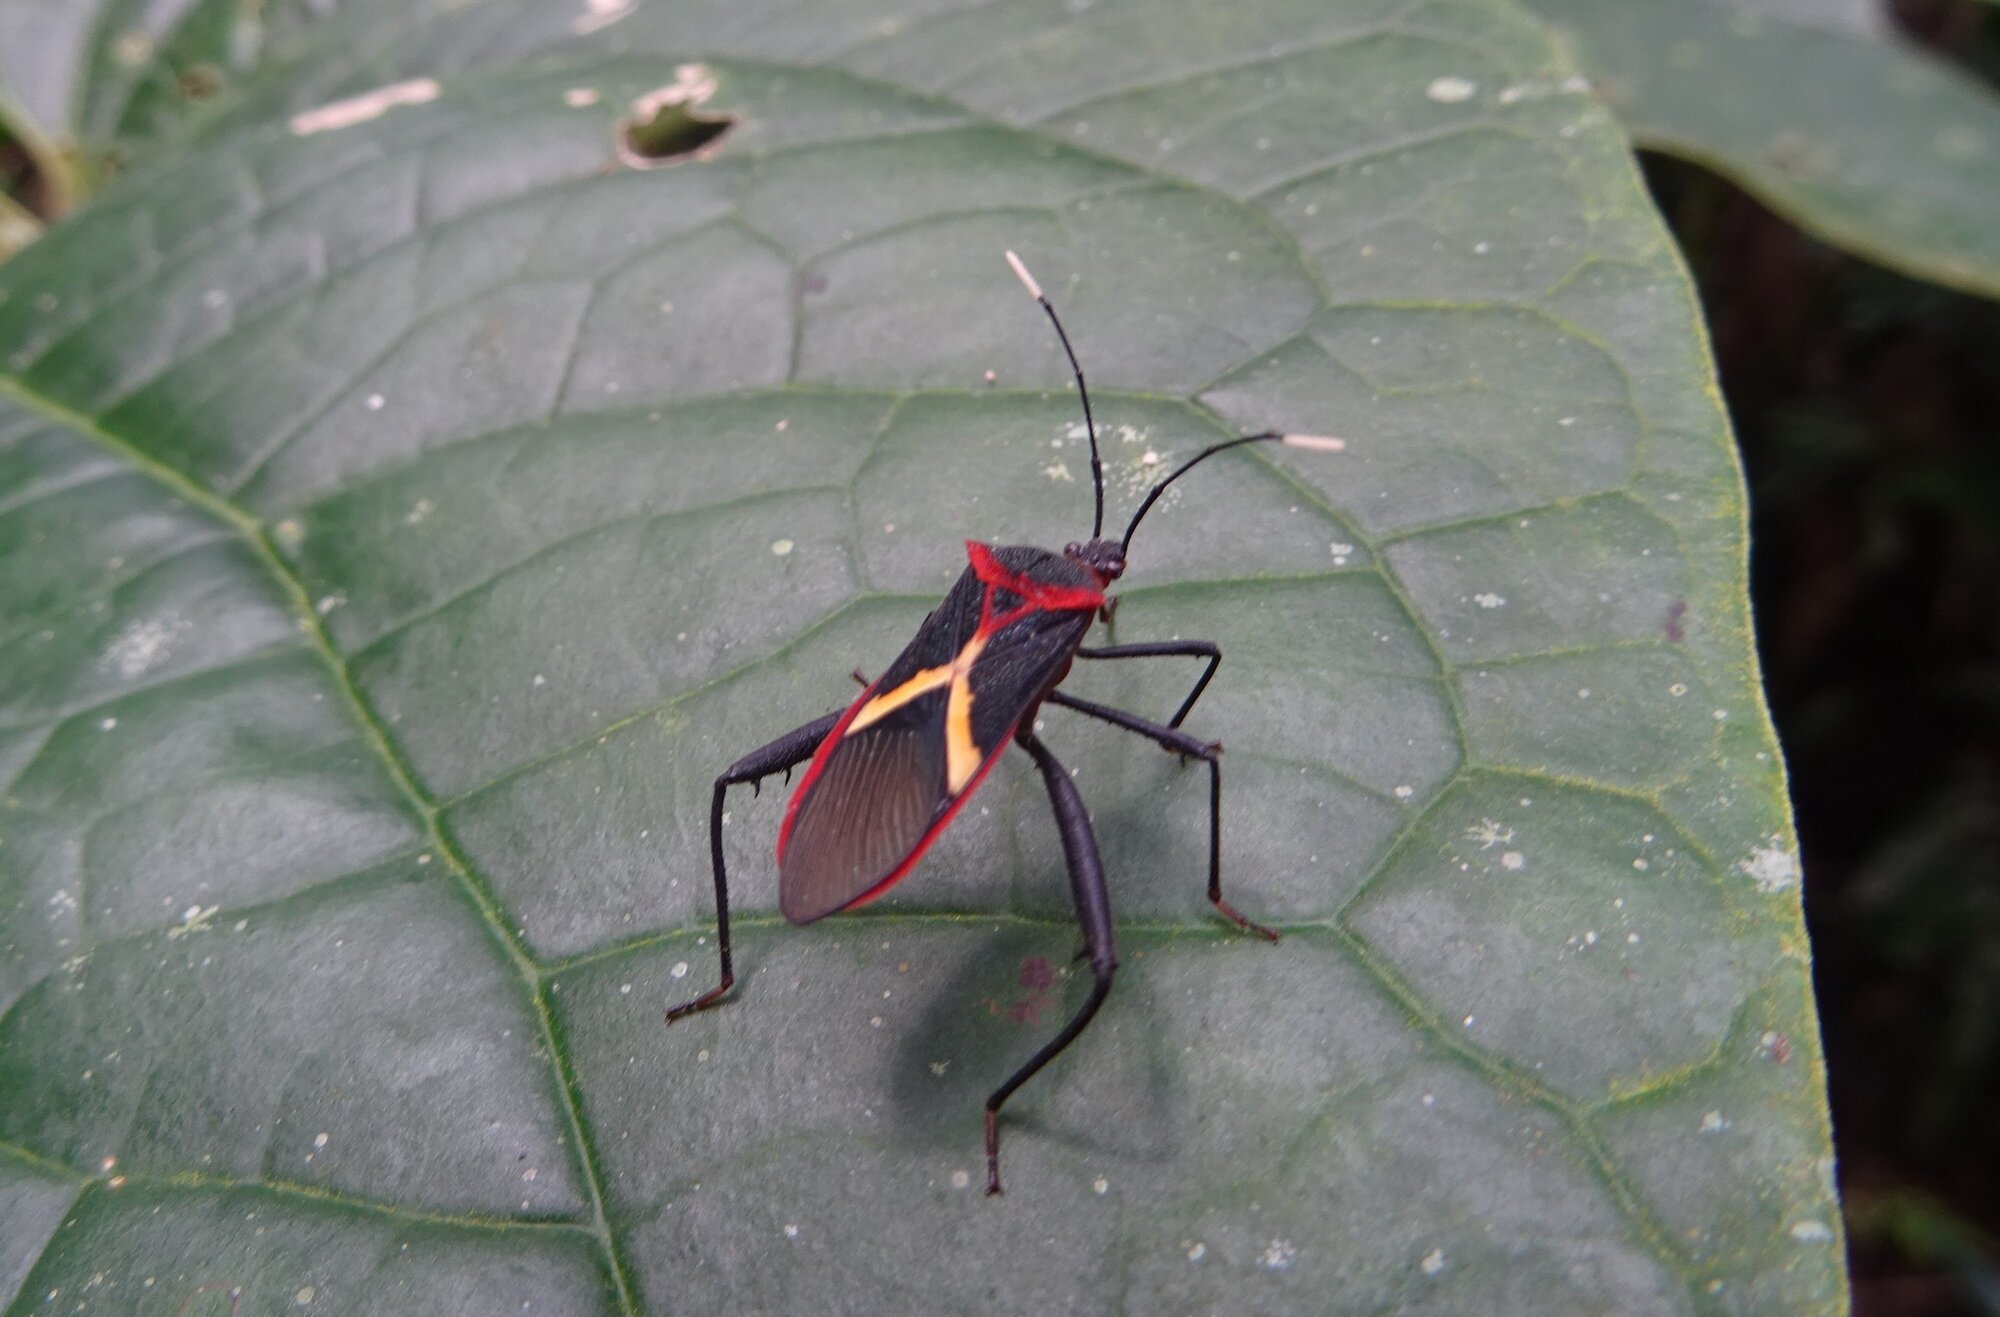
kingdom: Animalia
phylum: Arthropoda
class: Insecta
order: Hemiptera
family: Coreidae
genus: Leptoscelis
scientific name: Leptoscelis tricolor
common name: Heliconia bug
